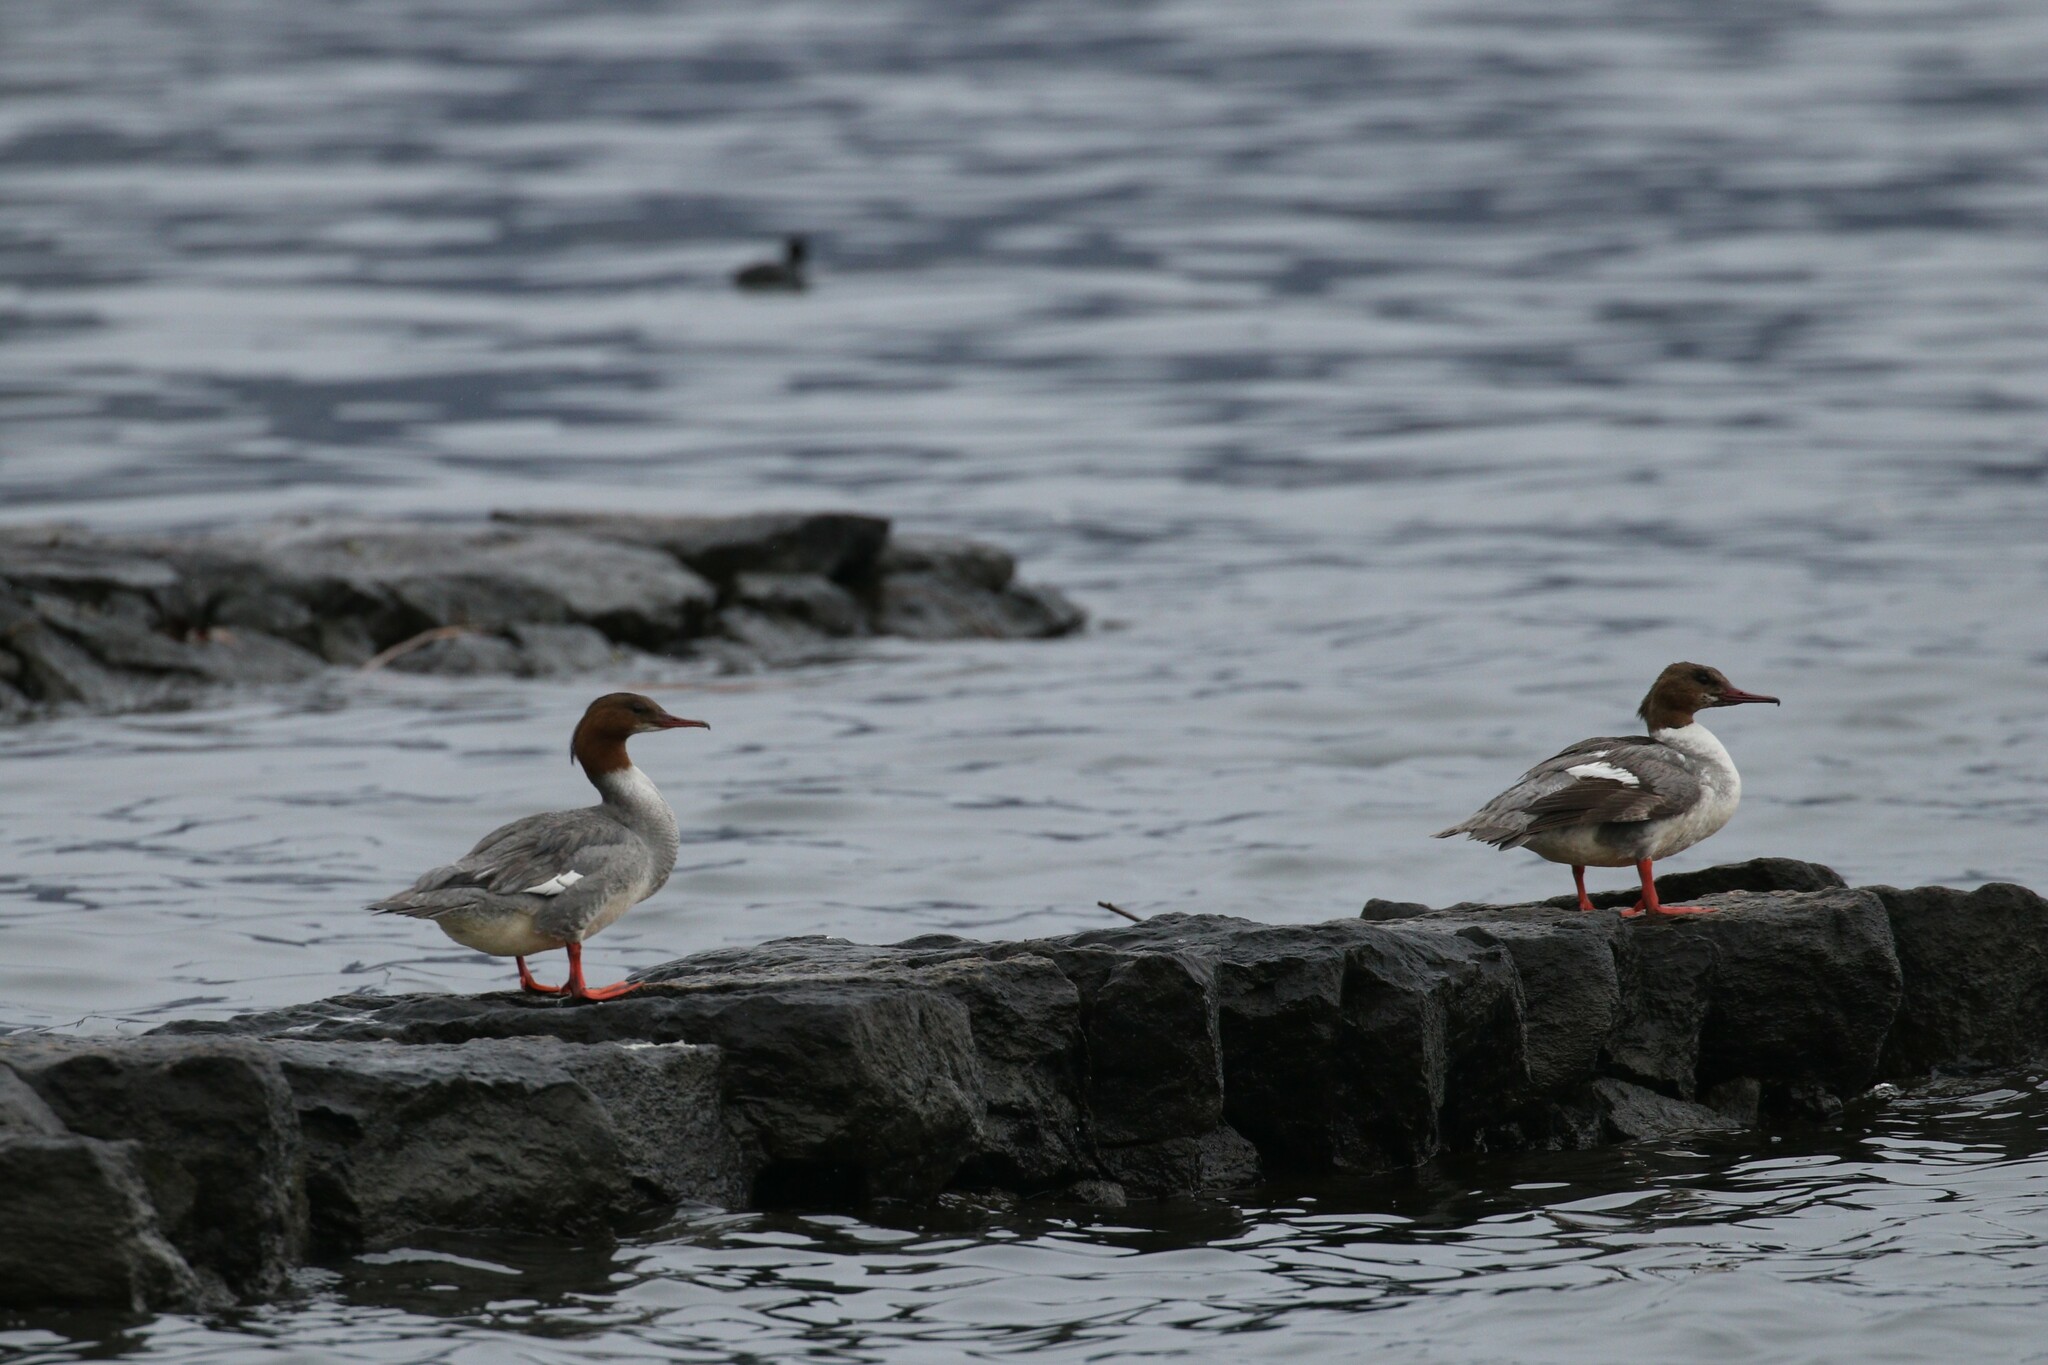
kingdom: Animalia
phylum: Chordata
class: Aves
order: Anseriformes
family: Anatidae
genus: Mergus
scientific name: Mergus merganser
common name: Common merganser
